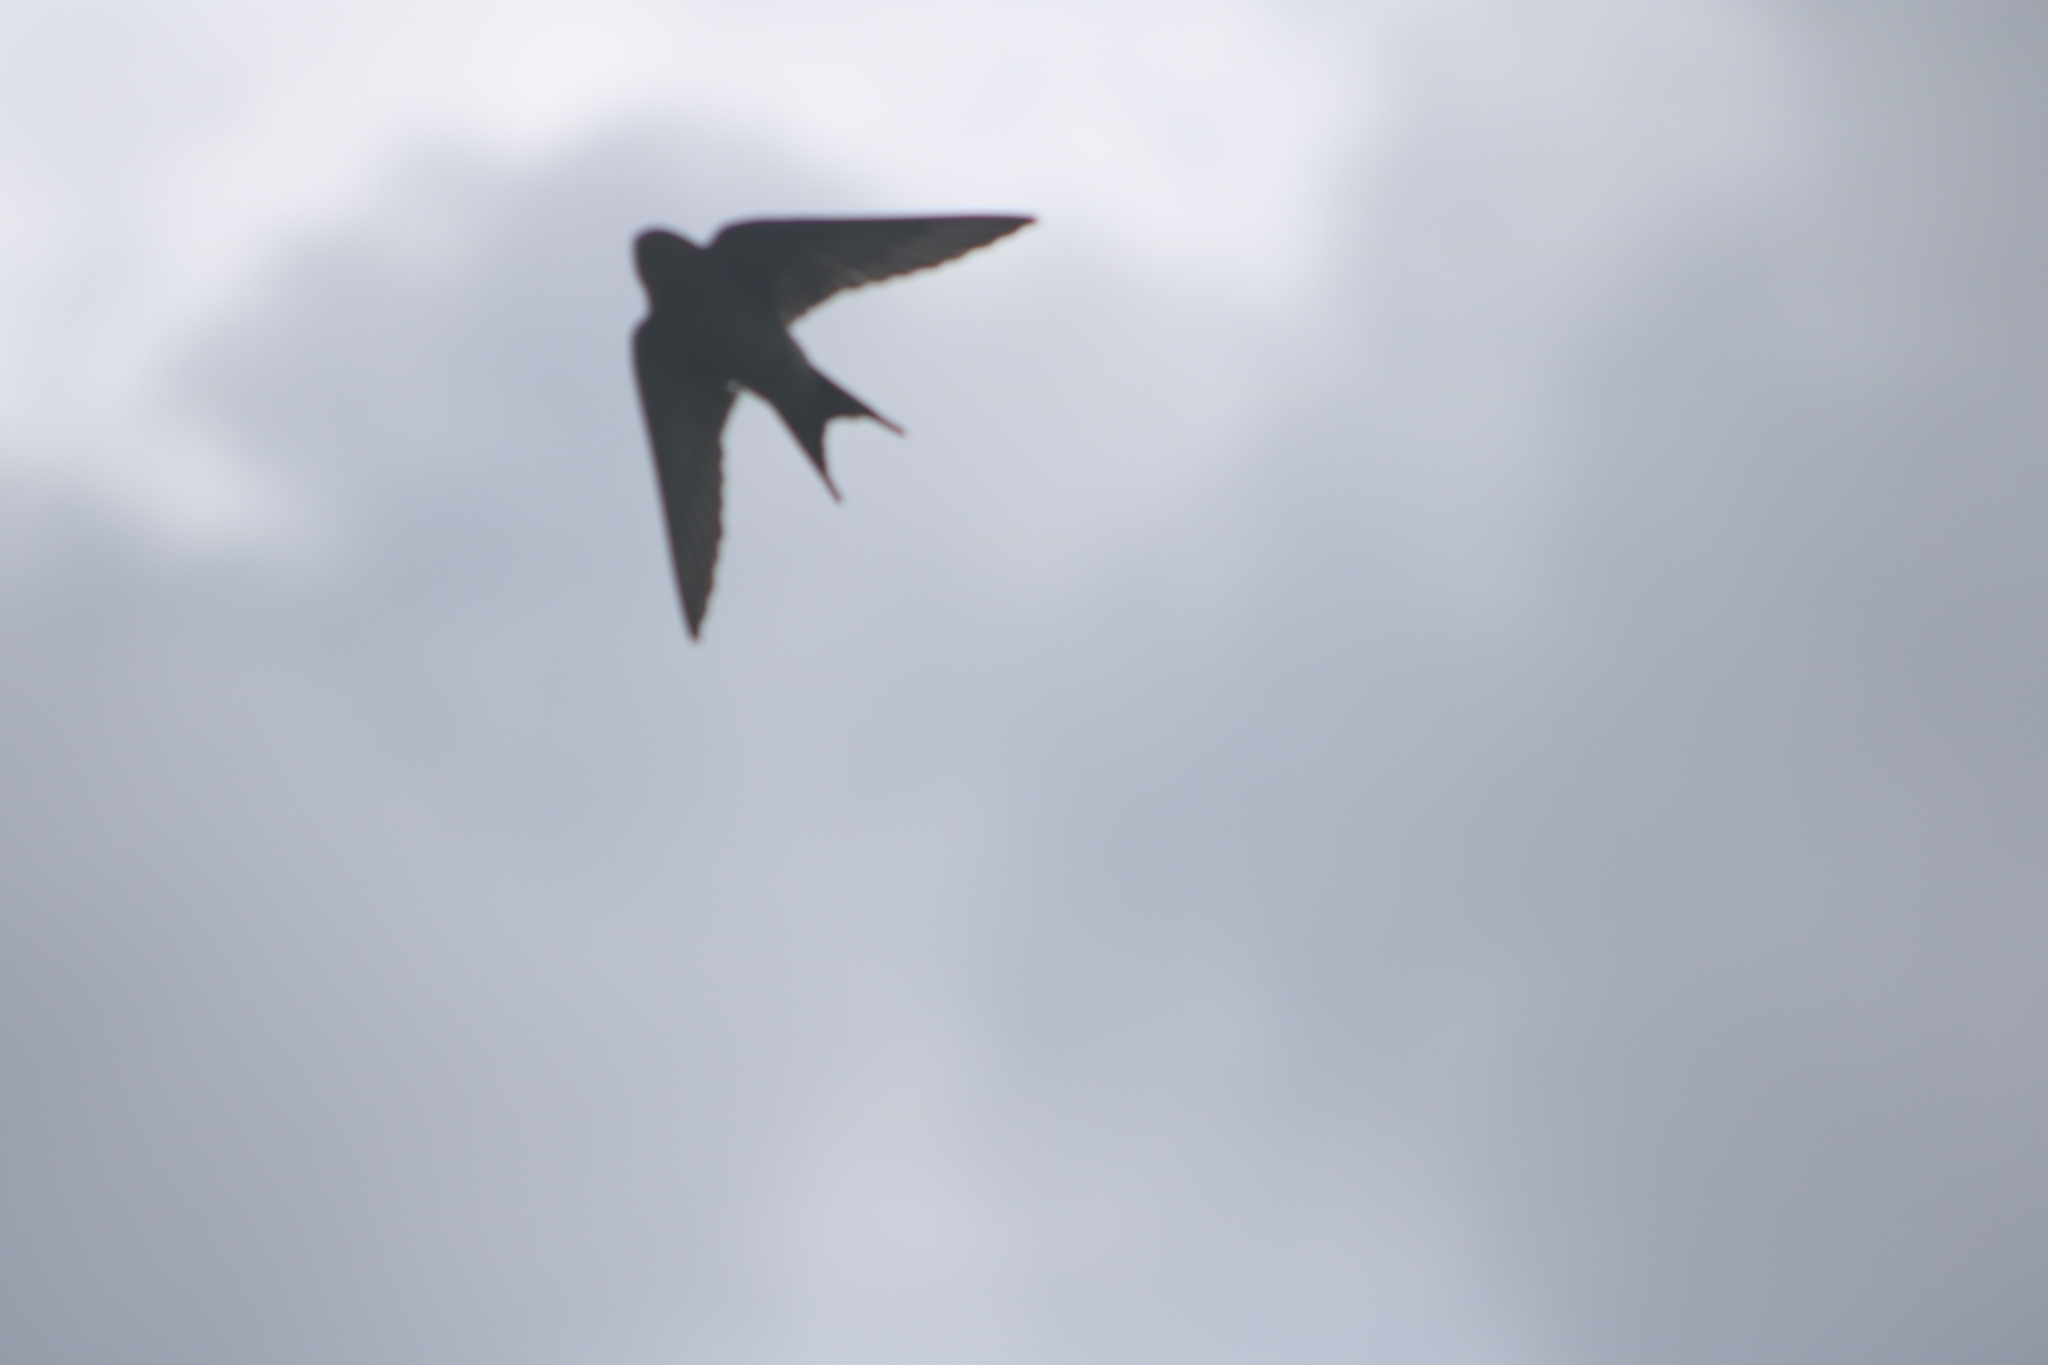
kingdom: Animalia
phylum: Chordata
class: Aves
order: Passeriformes
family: Hirundinidae
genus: Hirundo
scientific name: Hirundo neoxena
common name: Welcome swallow
